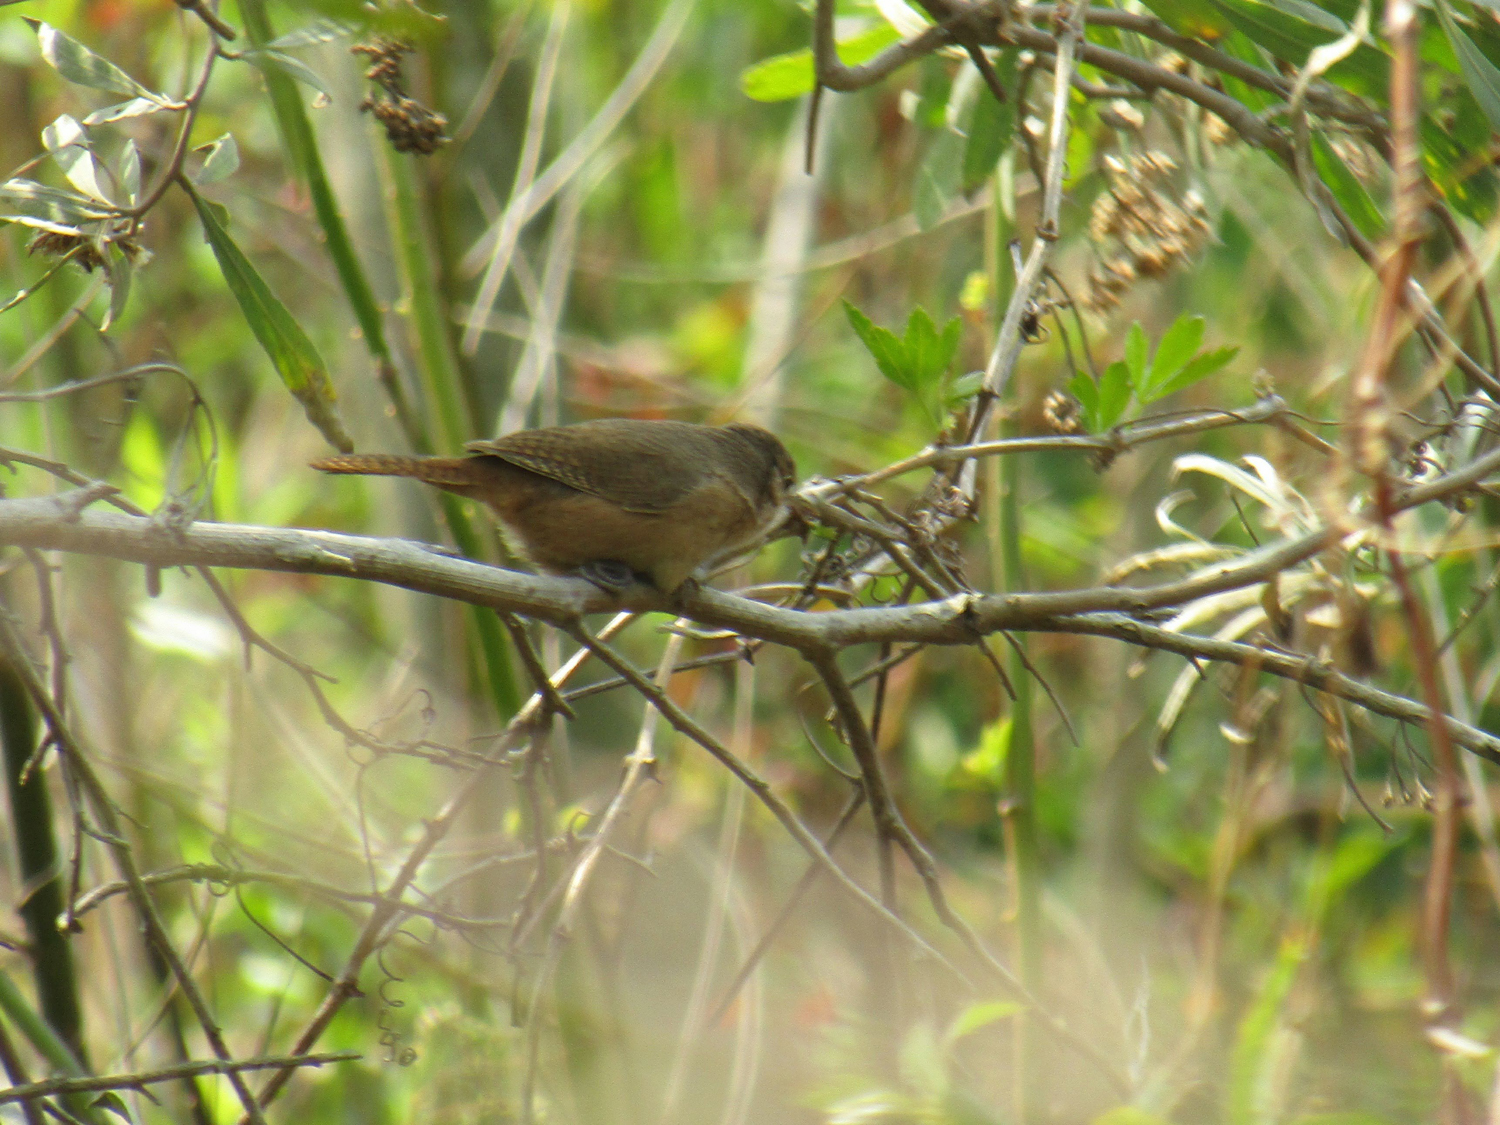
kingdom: Animalia
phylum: Chordata
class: Aves
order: Passeriformes
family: Troglodytidae
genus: Troglodytes
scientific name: Troglodytes aedon
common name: House wren
